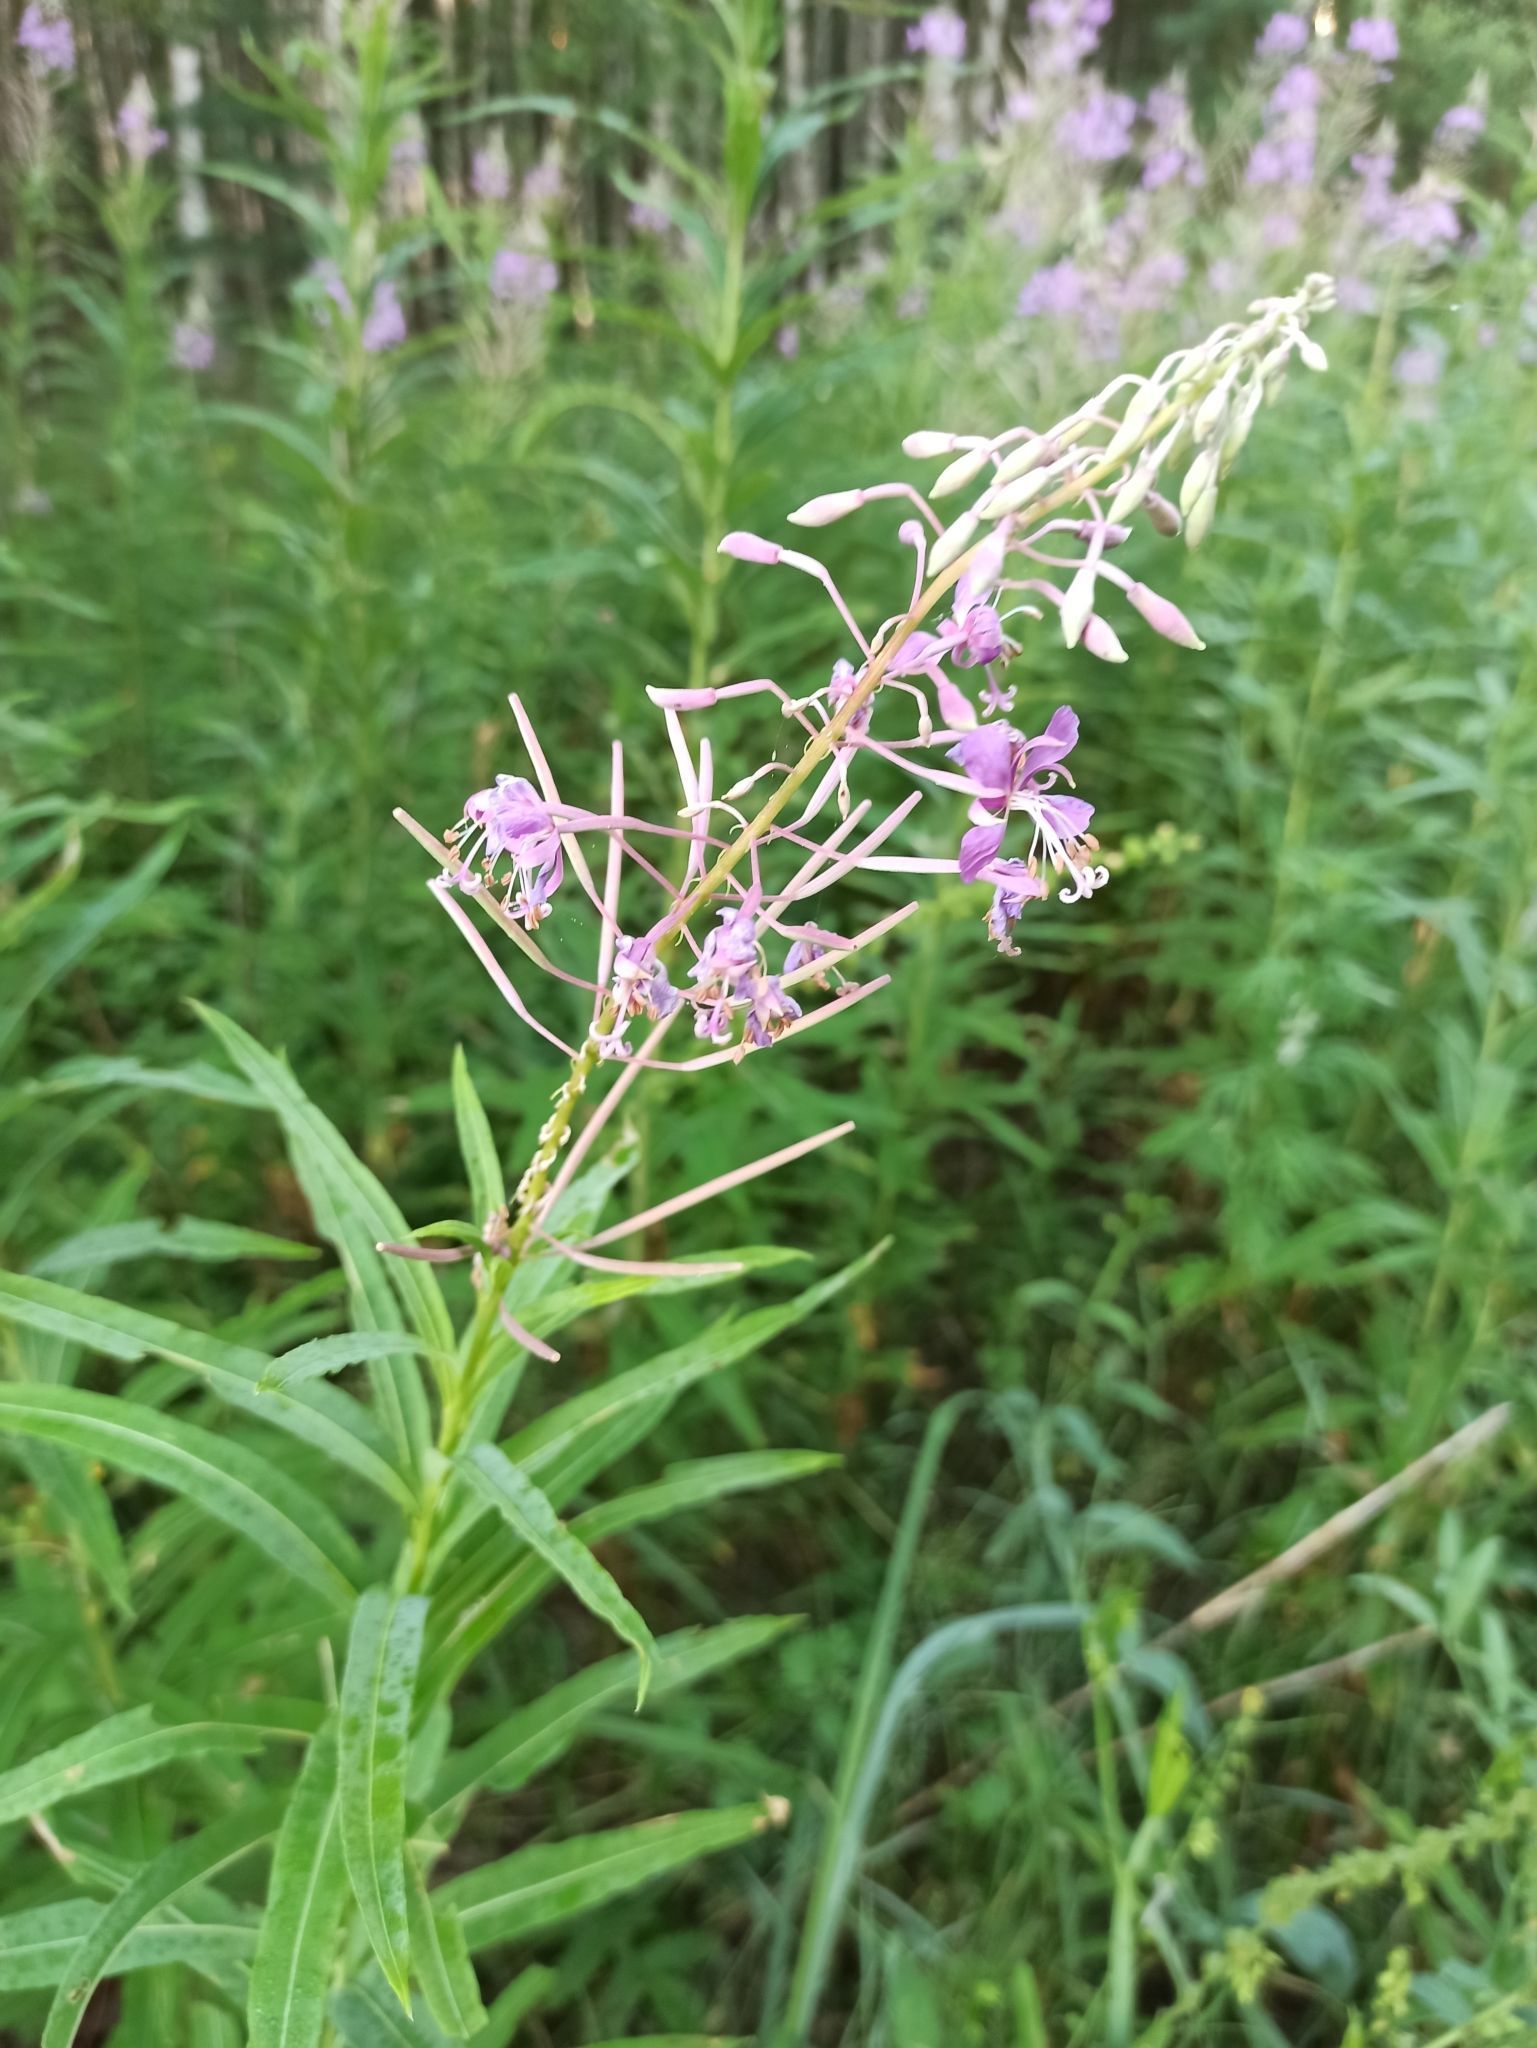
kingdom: Plantae
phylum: Tracheophyta
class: Magnoliopsida
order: Myrtales
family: Onagraceae
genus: Chamaenerion
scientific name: Chamaenerion angustifolium
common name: Fireweed
